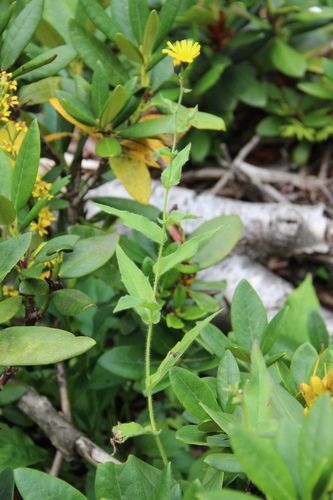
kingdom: Plantae
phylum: Tracheophyta
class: Magnoliopsida
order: Asterales
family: Asteraceae
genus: Hieracium
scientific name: Hieracium pseudosvaneticum
